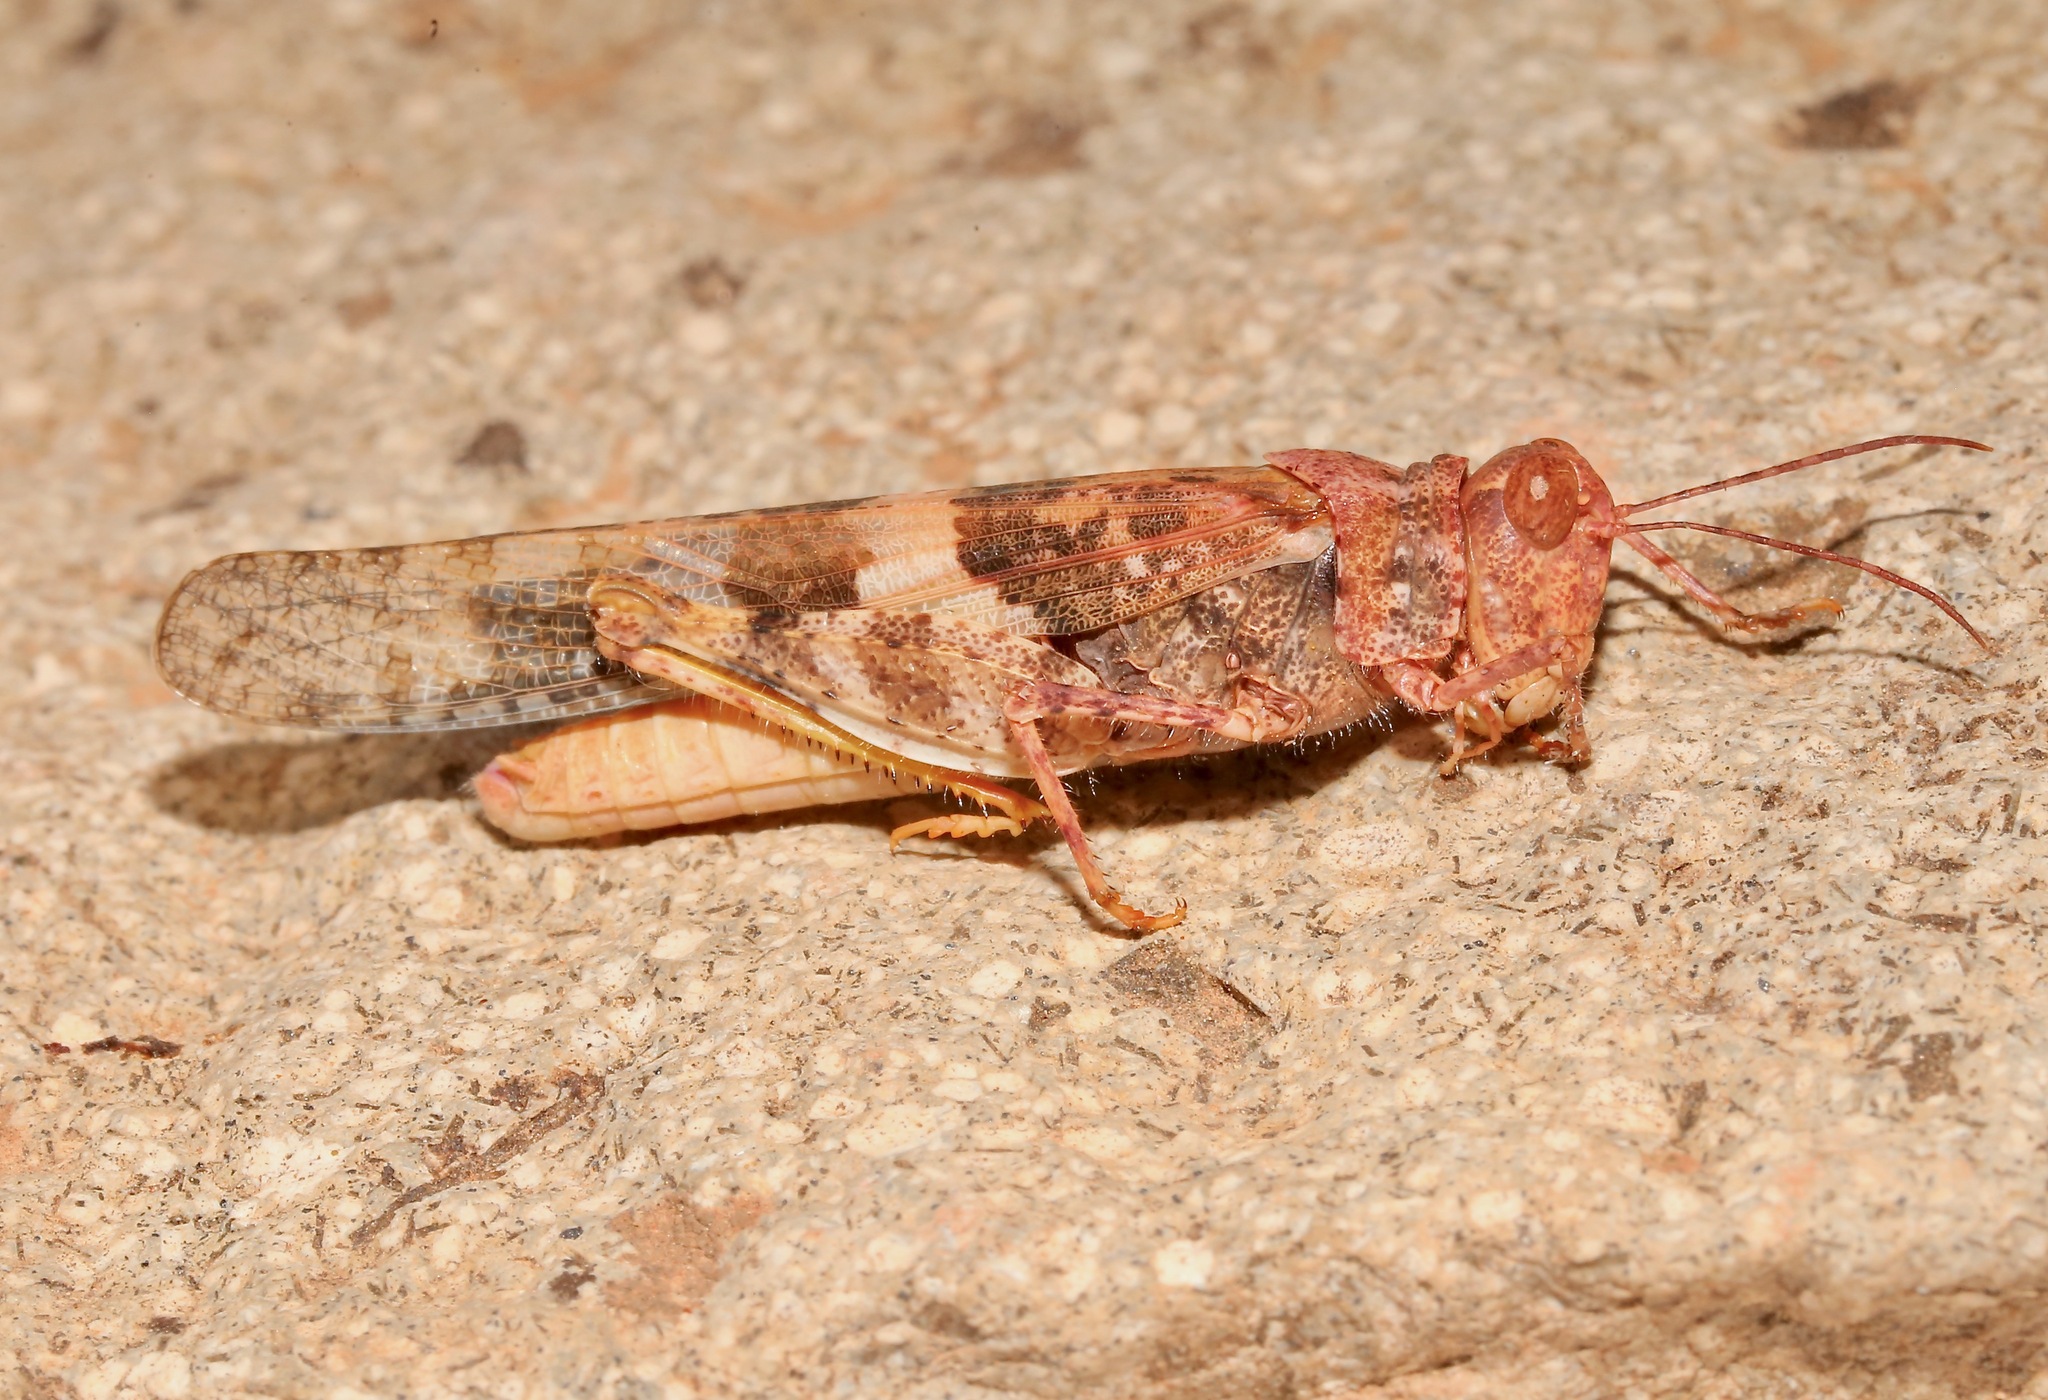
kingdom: Animalia
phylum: Arthropoda
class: Insecta
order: Orthoptera
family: Acrididae
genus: Trimerotropis
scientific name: Trimerotropis pallidipennis
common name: Pallid-winged grasshopper
